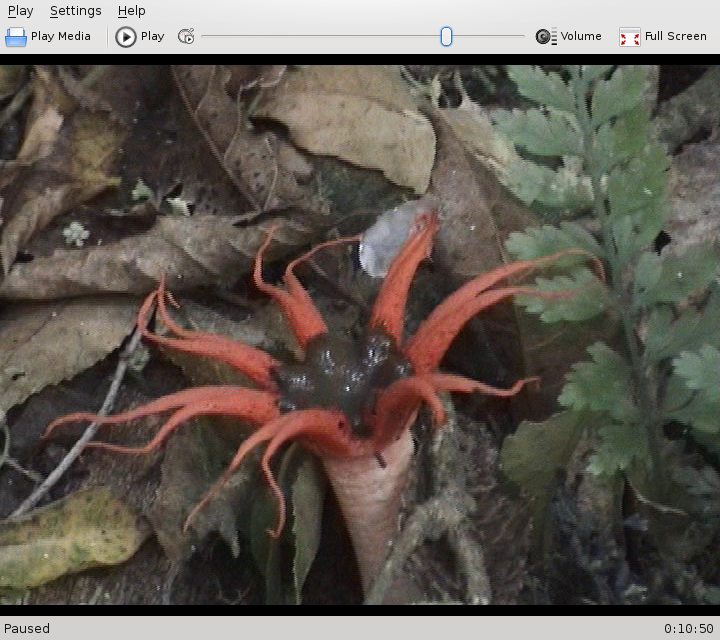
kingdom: Fungi
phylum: Basidiomycota
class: Agaricomycetes
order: Phallales
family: Phallaceae
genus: Aseroe
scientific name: Aseroe rubra
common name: Starfish fungus
